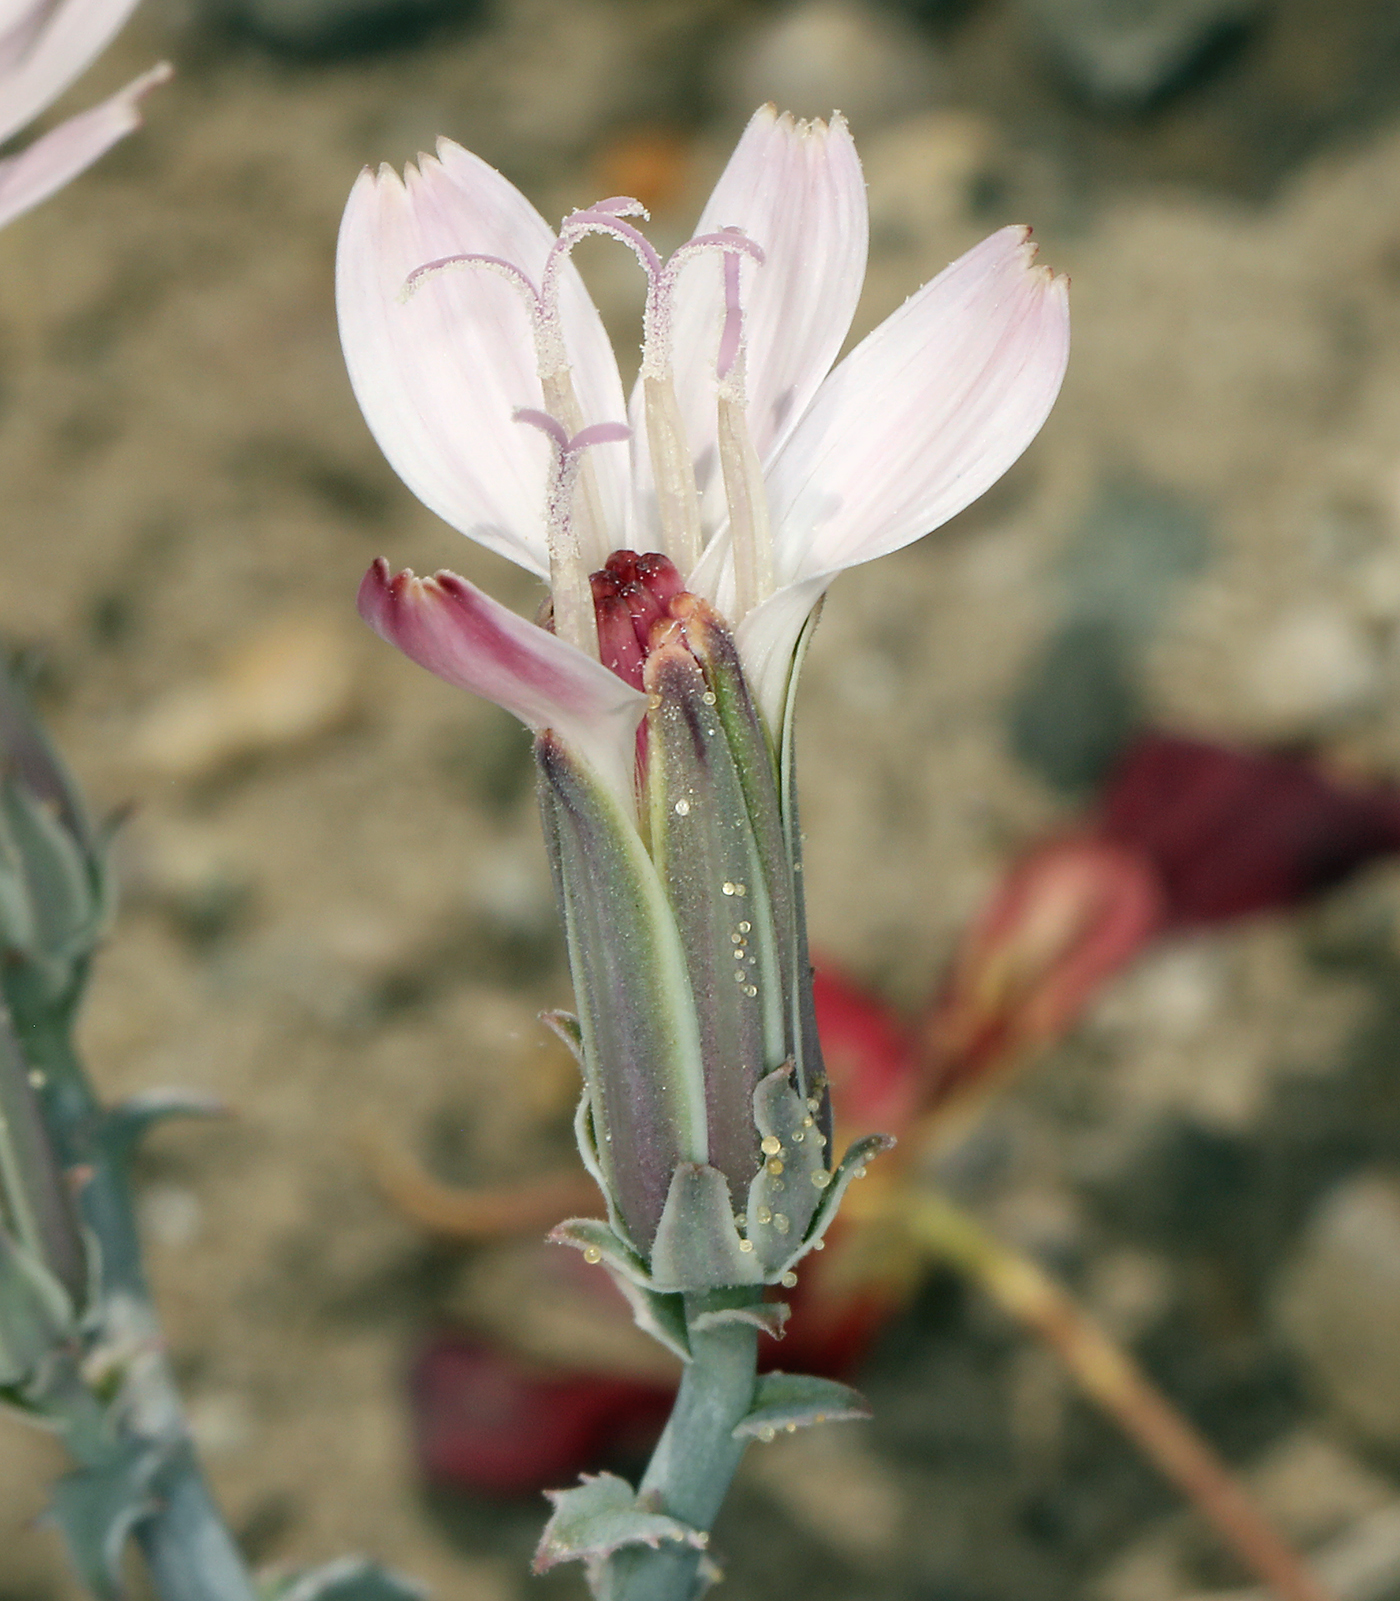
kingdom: Plantae
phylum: Tracheophyta
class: Magnoliopsida
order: Asterales
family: Asteraceae
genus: Stephanomeria
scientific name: Stephanomeria parryi
